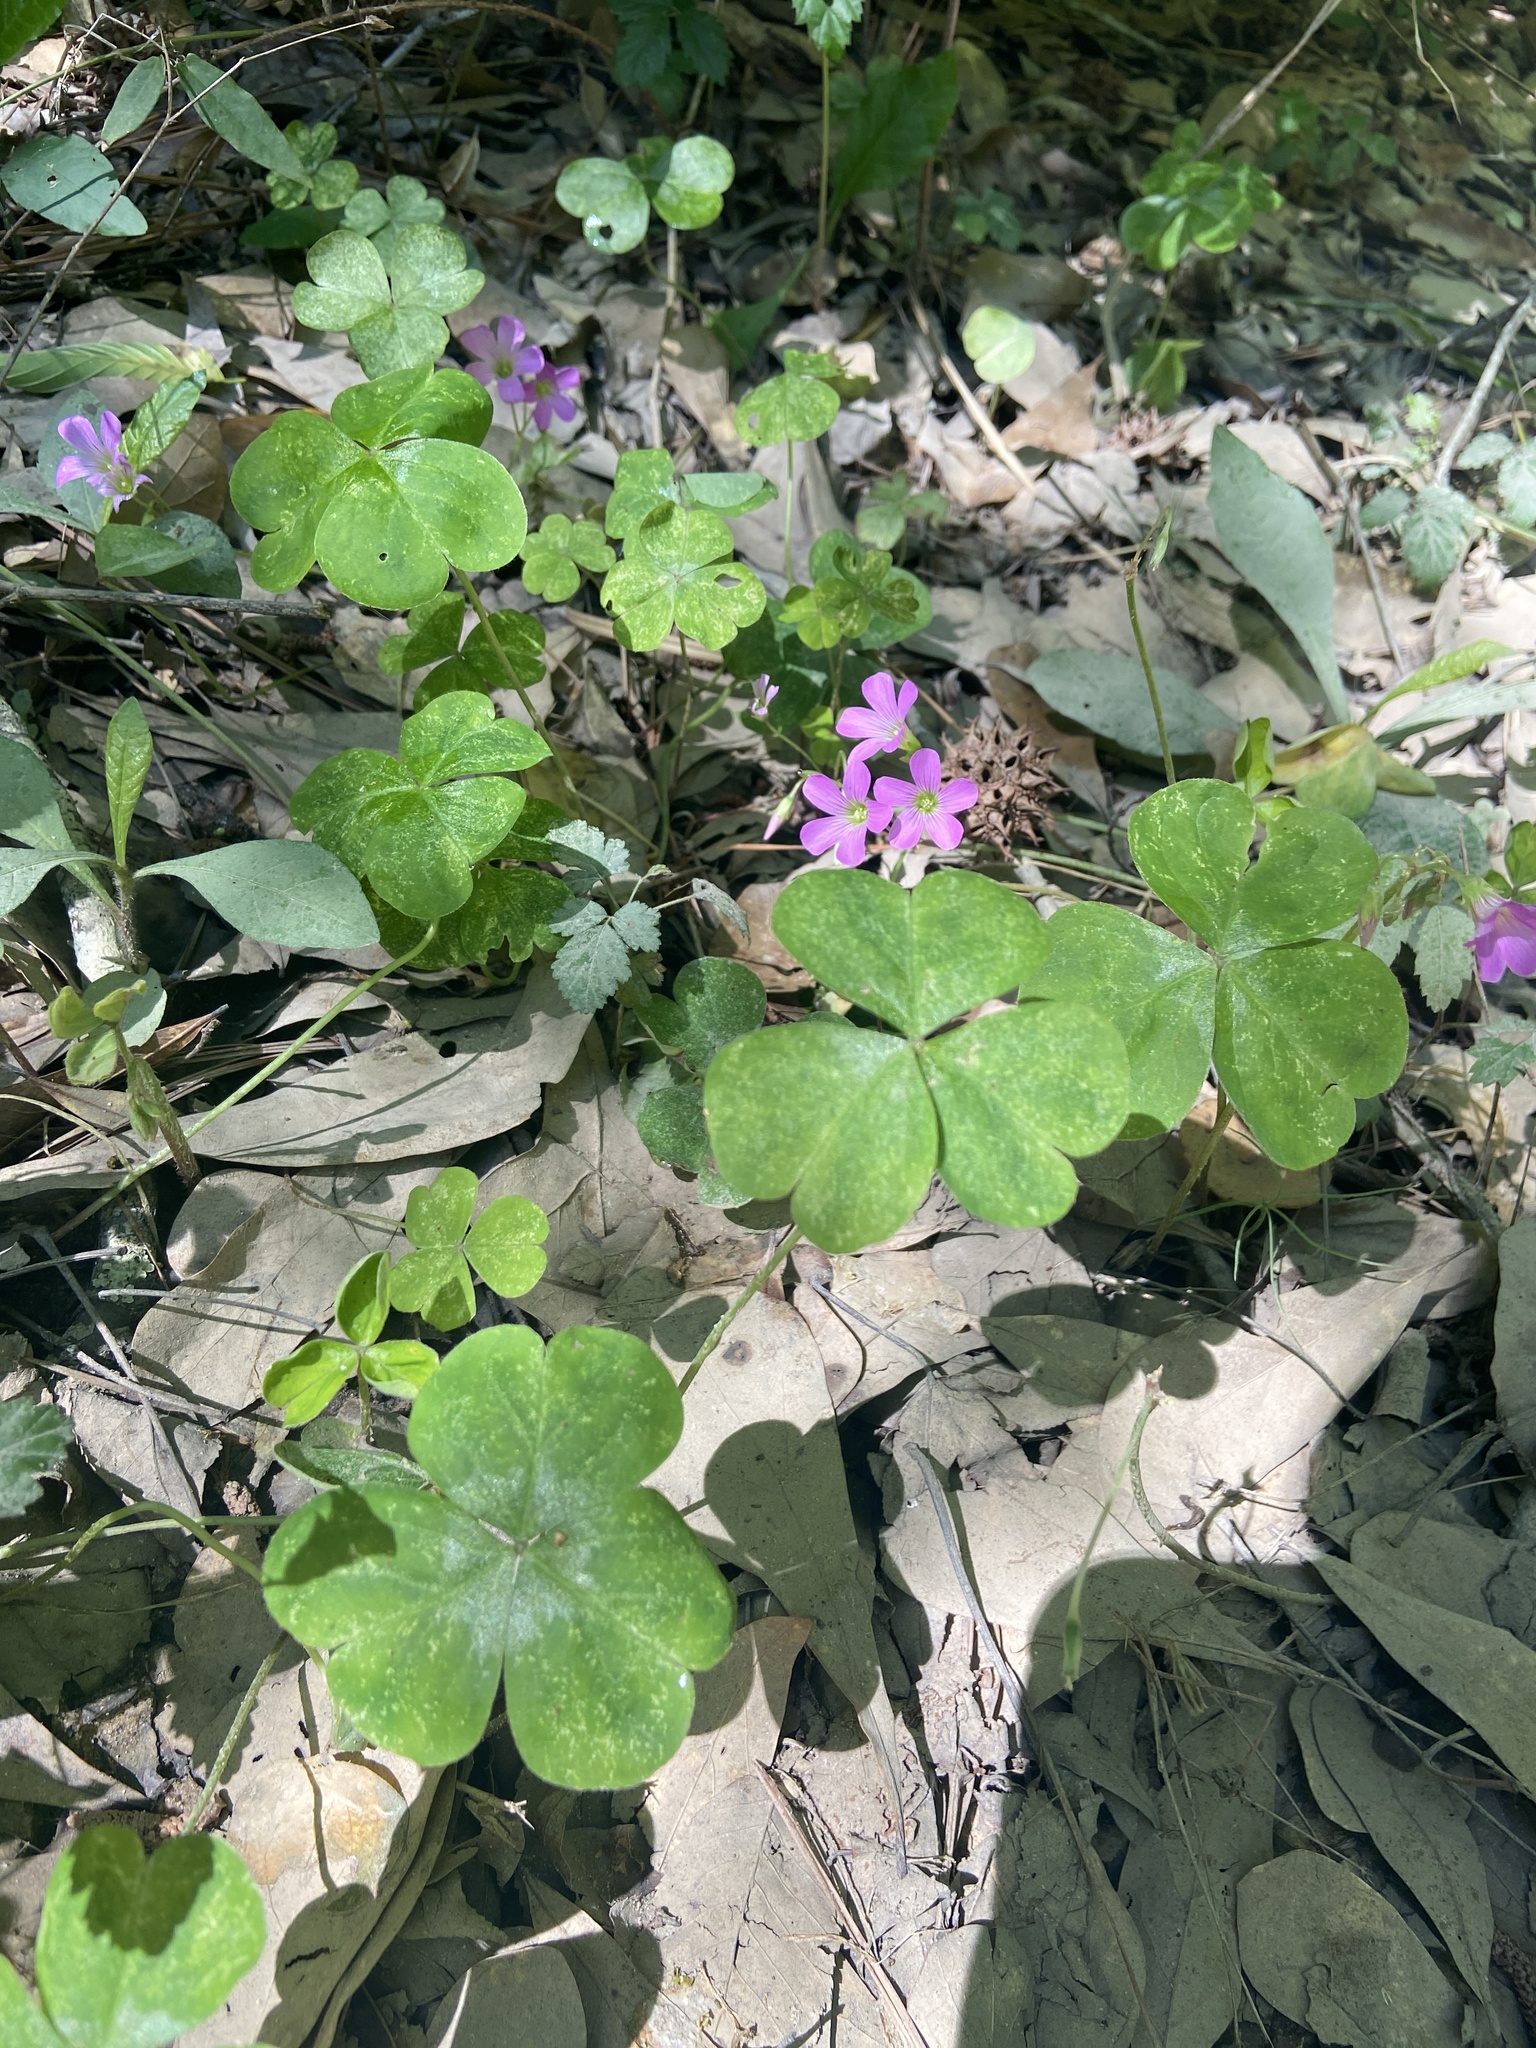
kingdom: Plantae
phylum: Tracheophyta
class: Magnoliopsida
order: Oxalidales
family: Oxalidaceae
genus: Oxalis
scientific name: Oxalis debilis
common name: Large-flowered pink-sorrel
